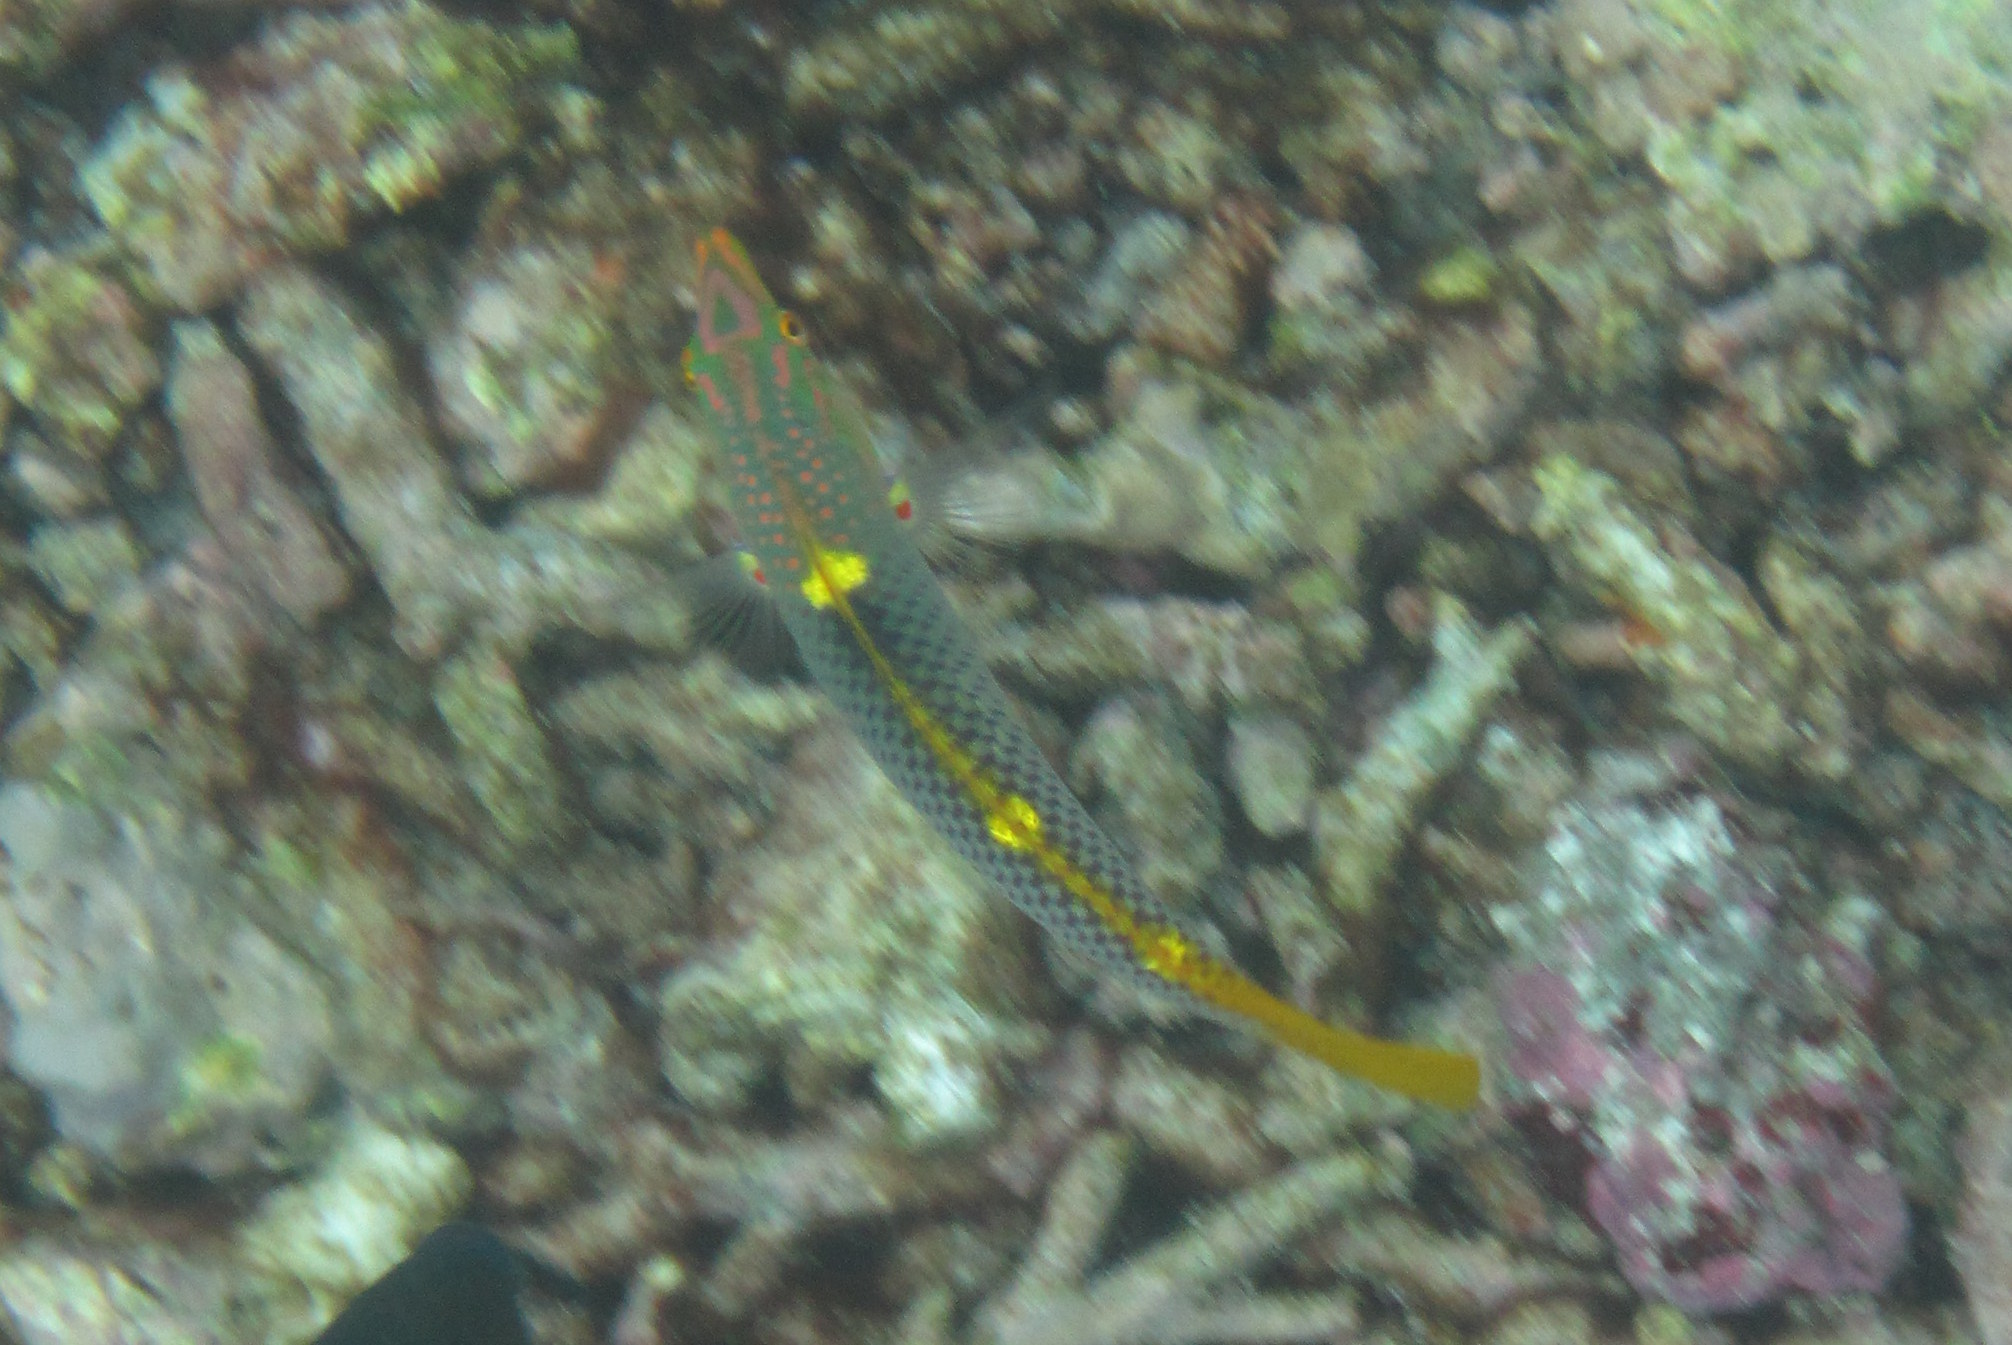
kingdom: Animalia
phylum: Chordata
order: Perciformes
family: Labridae
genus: Halichoeres
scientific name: Halichoeres hortulanus
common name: Checkerboard wrasse
